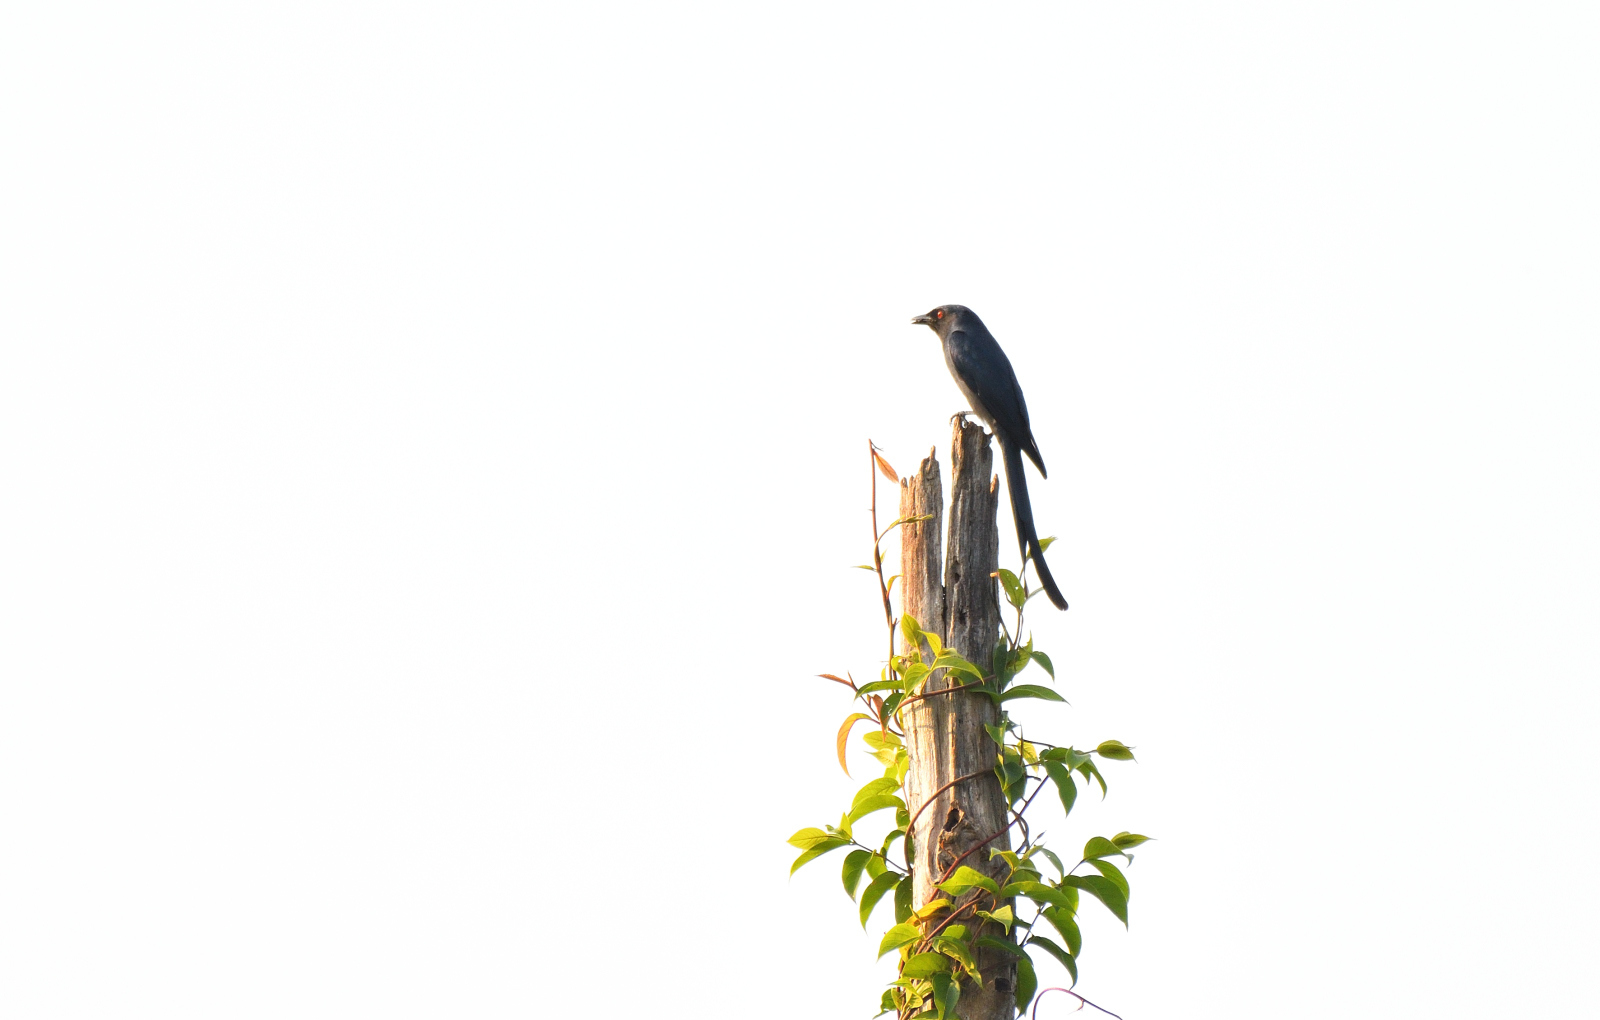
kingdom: Animalia
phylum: Chordata
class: Aves
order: Passeriformes
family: Dicruridae
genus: Dicrurus
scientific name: Dicrurus leucophaeus
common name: Ashy drongo
